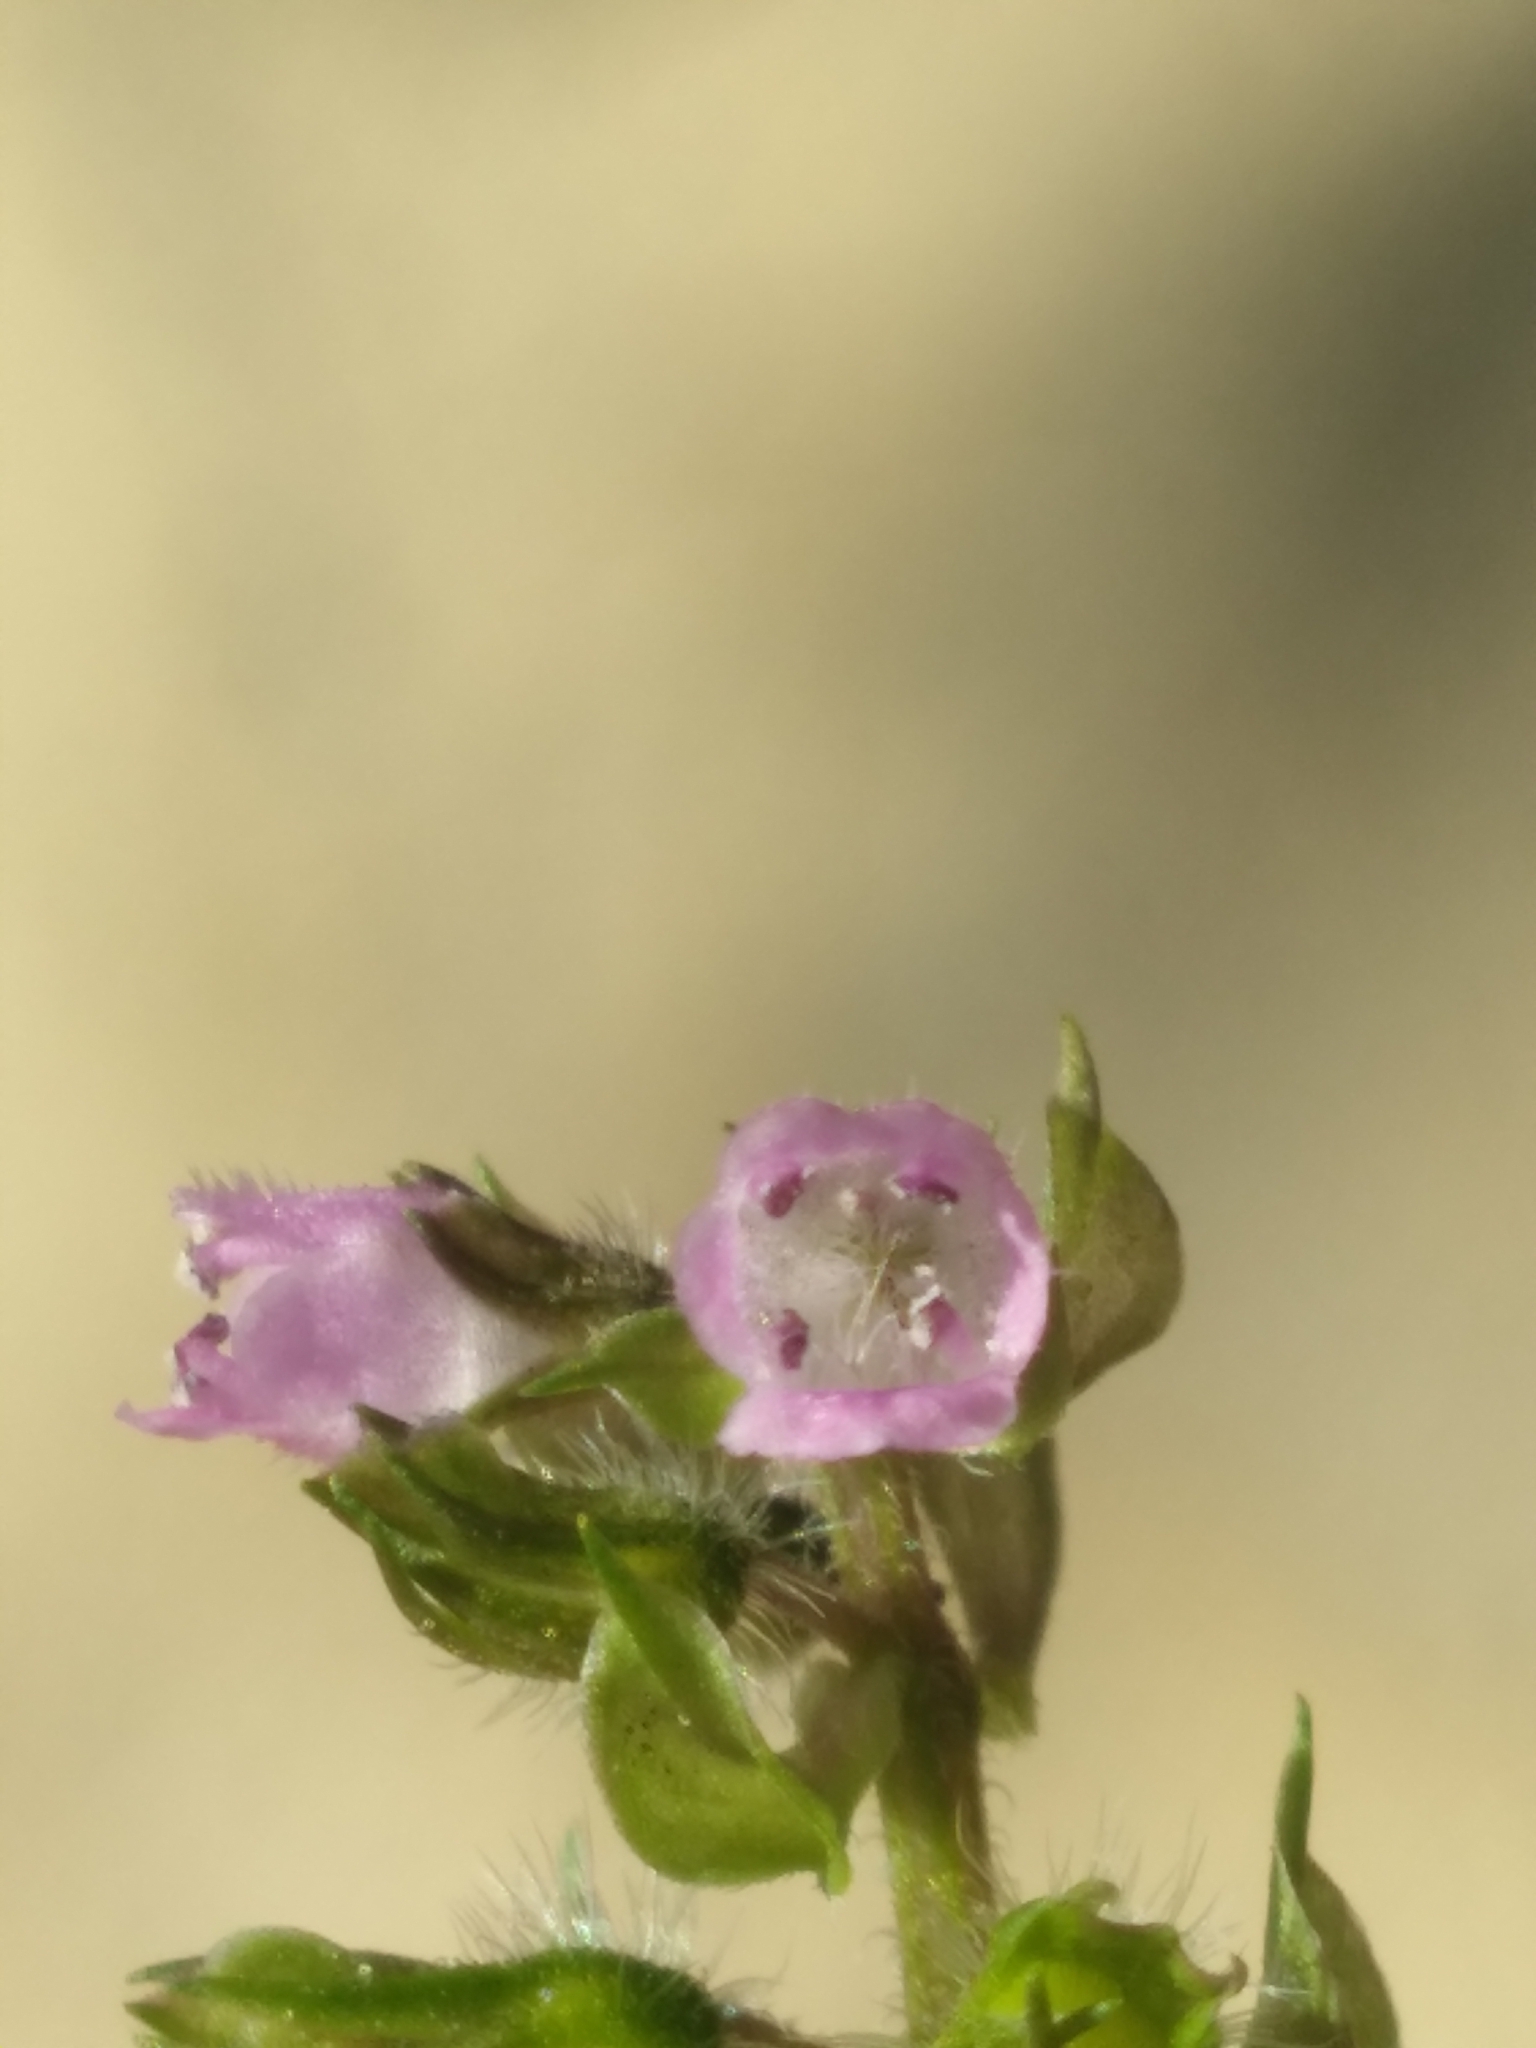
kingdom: Plantae
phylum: Tracheophyta
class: Magnoliopsida
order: Lamiales
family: Lamiaceae
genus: Perilla
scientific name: Perilla frutescens
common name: Perilla
